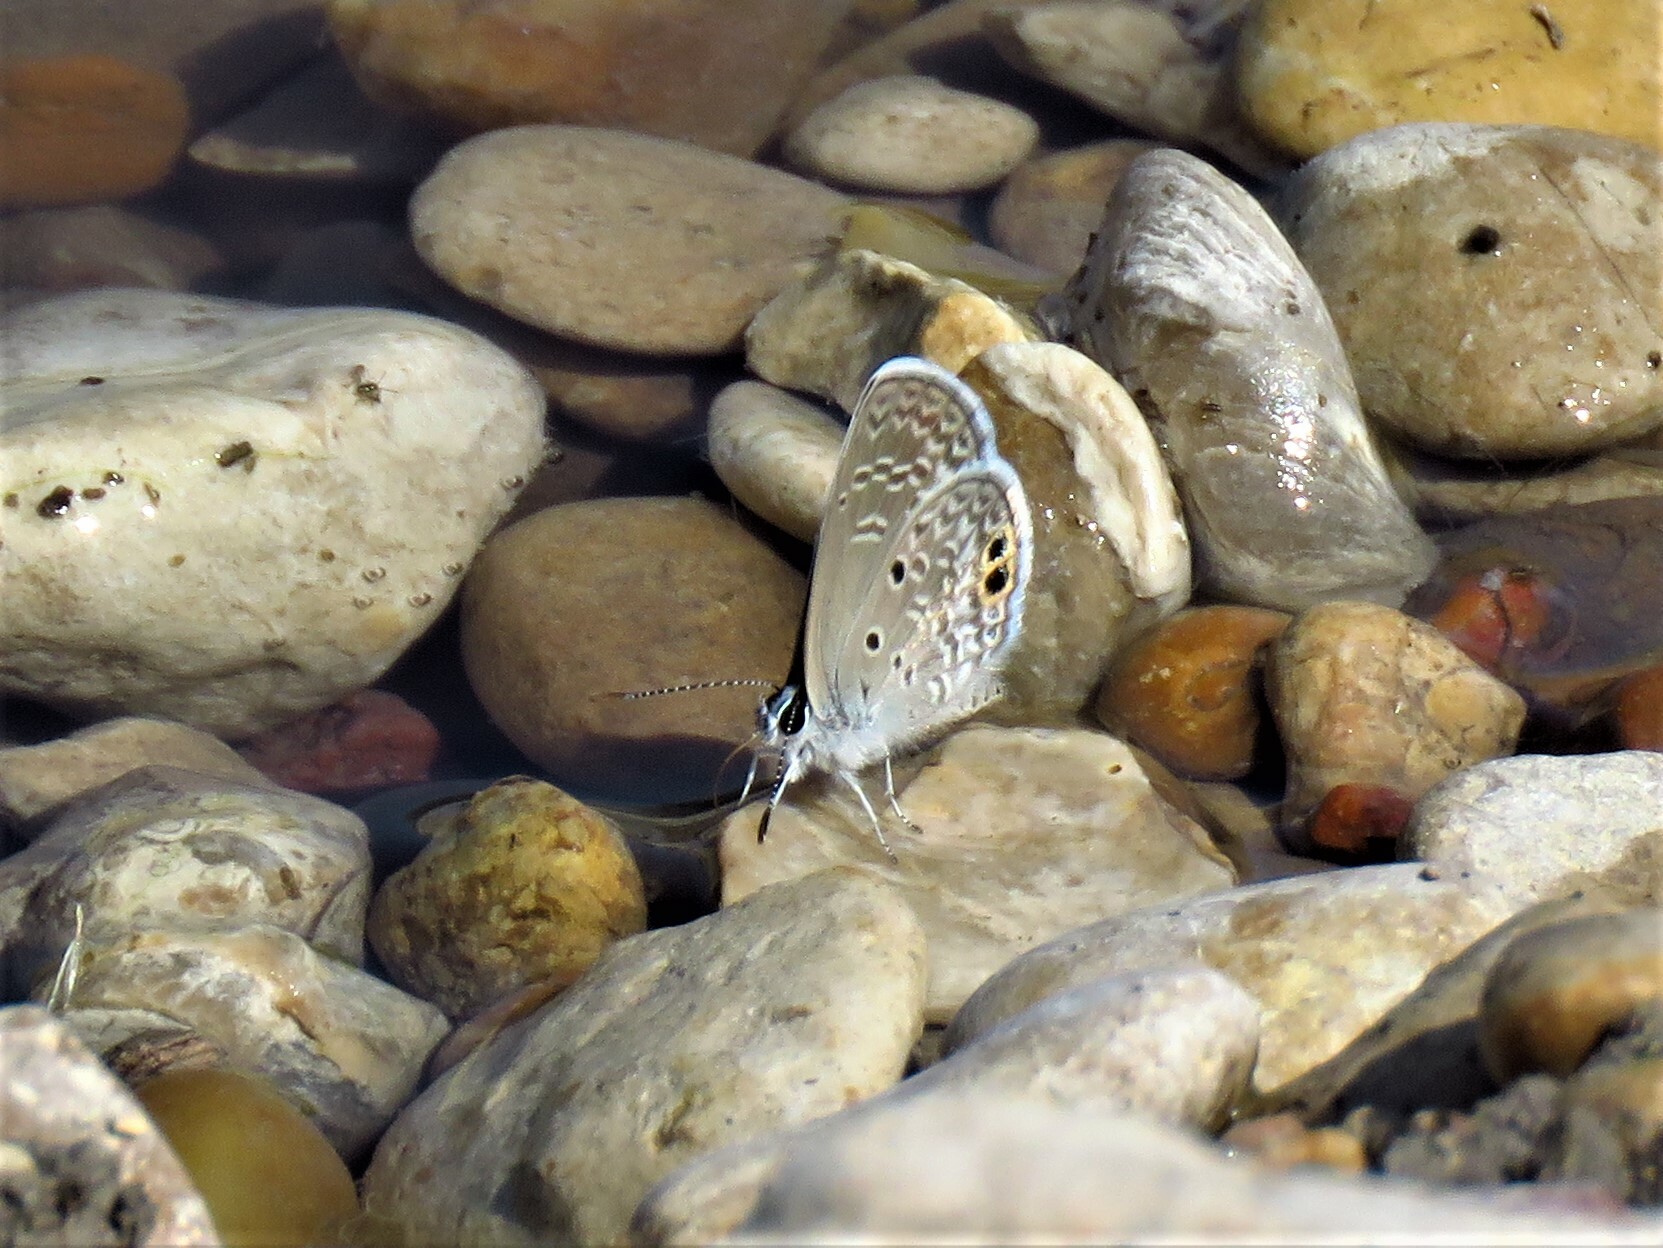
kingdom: Animalia
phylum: Arthropoda
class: Insecta
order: Lepidoptera
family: Lycaenidae
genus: Hemiargus
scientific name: Hemiargus ceraunus
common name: Ceraunus blue
